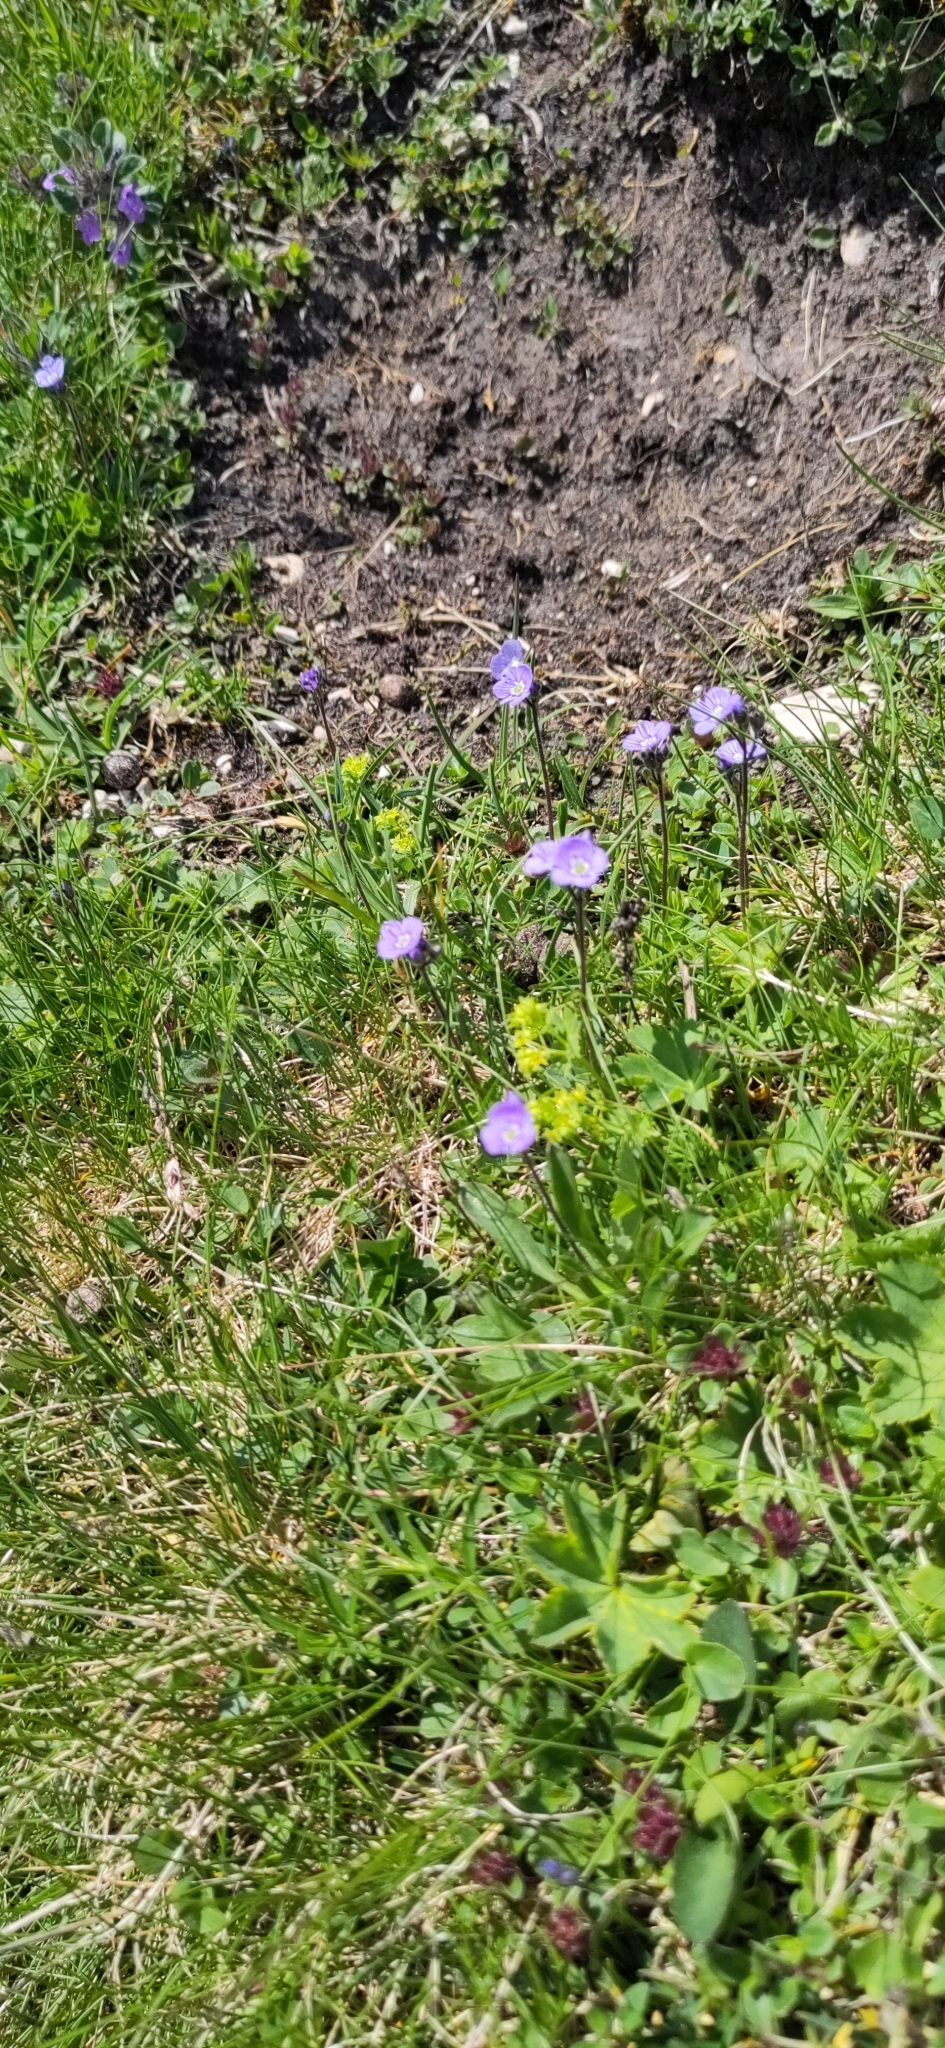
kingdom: Plantae
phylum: Tracheophyta
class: Magnoliopsida
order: Lamiales
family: Plantaginaceae
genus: Veronica
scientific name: Veronica aphylla
